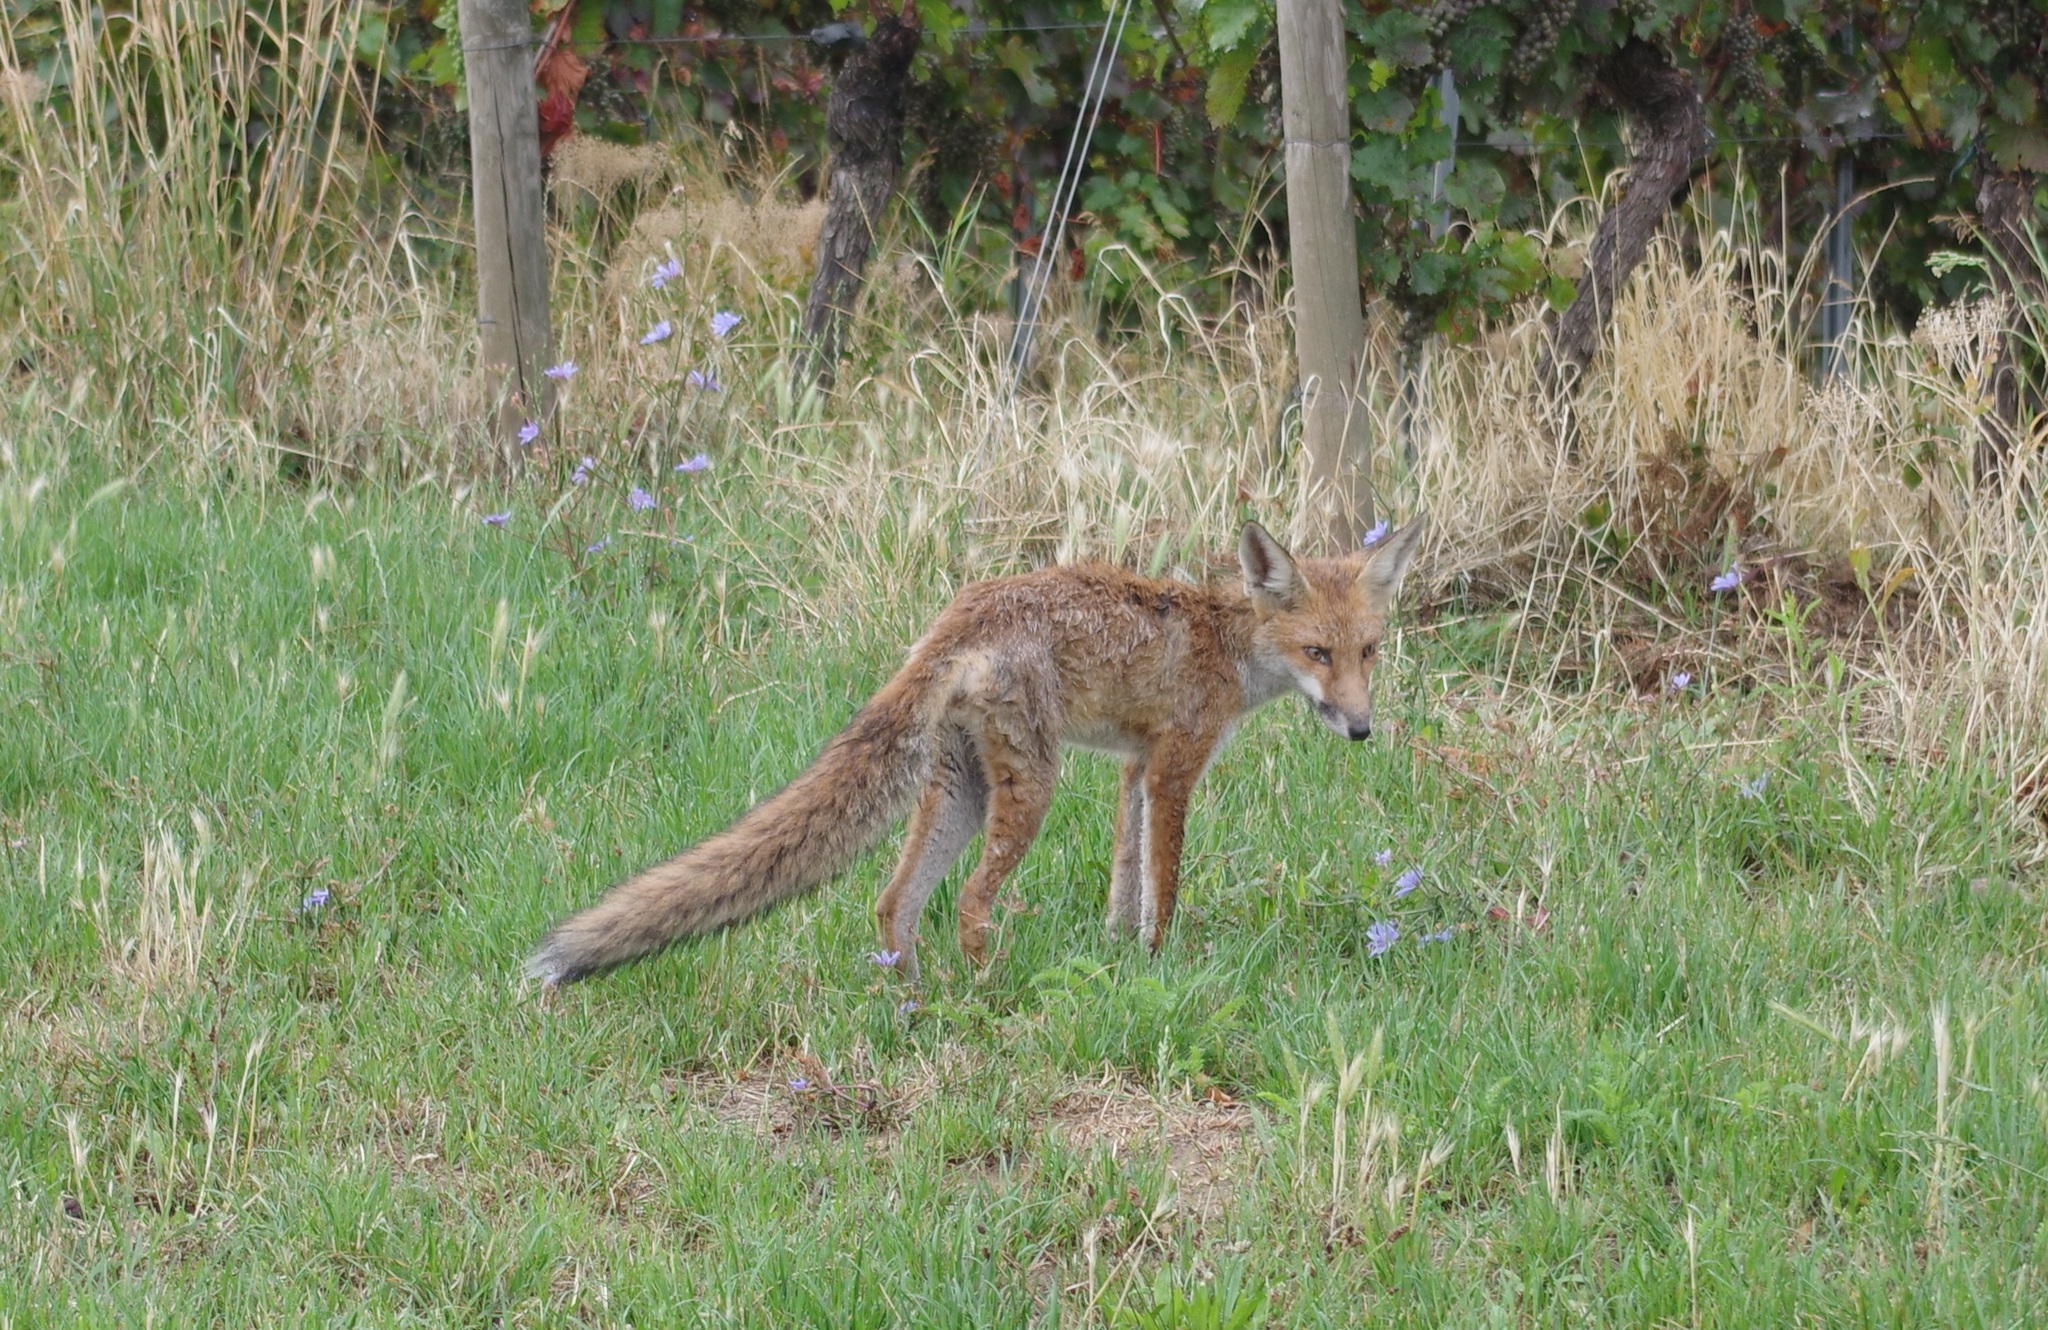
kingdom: Animalia
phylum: Chordata
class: Mammalia
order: Carnivora
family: Canidae
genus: Vulpes
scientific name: Vulpes vulpes
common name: Red fox
